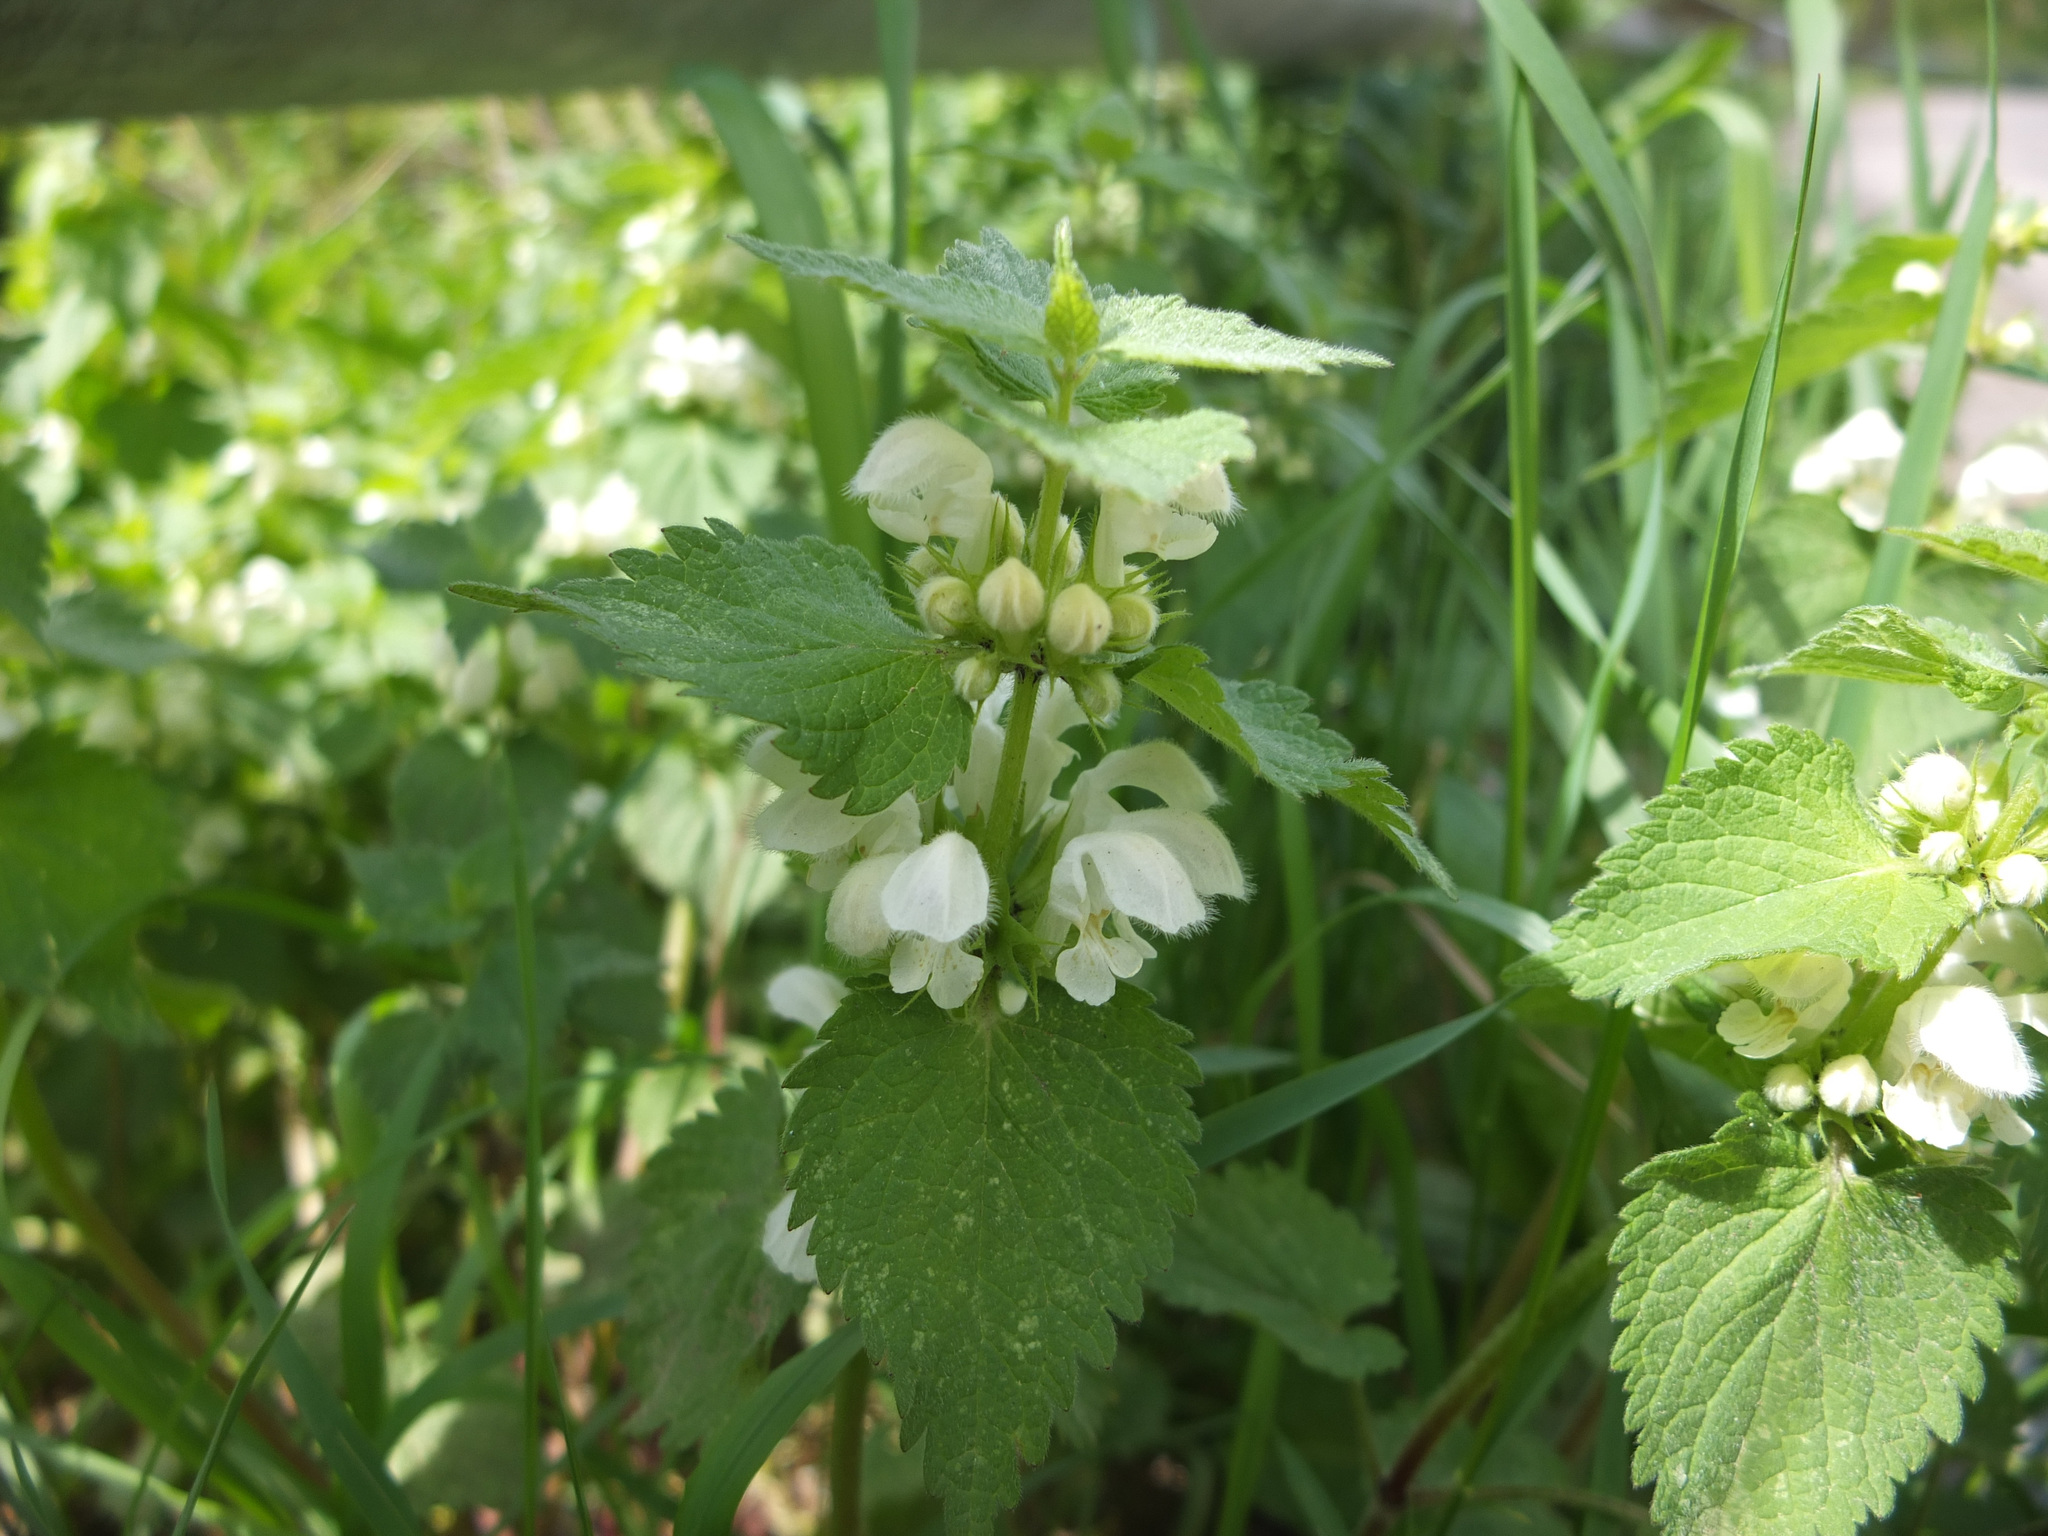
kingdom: Plantae
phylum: Tracheophyta
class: Magnoliopsida
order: Lamiales
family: Lamiaceae
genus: Lamium
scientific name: Lamium album
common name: White dead-nettle
